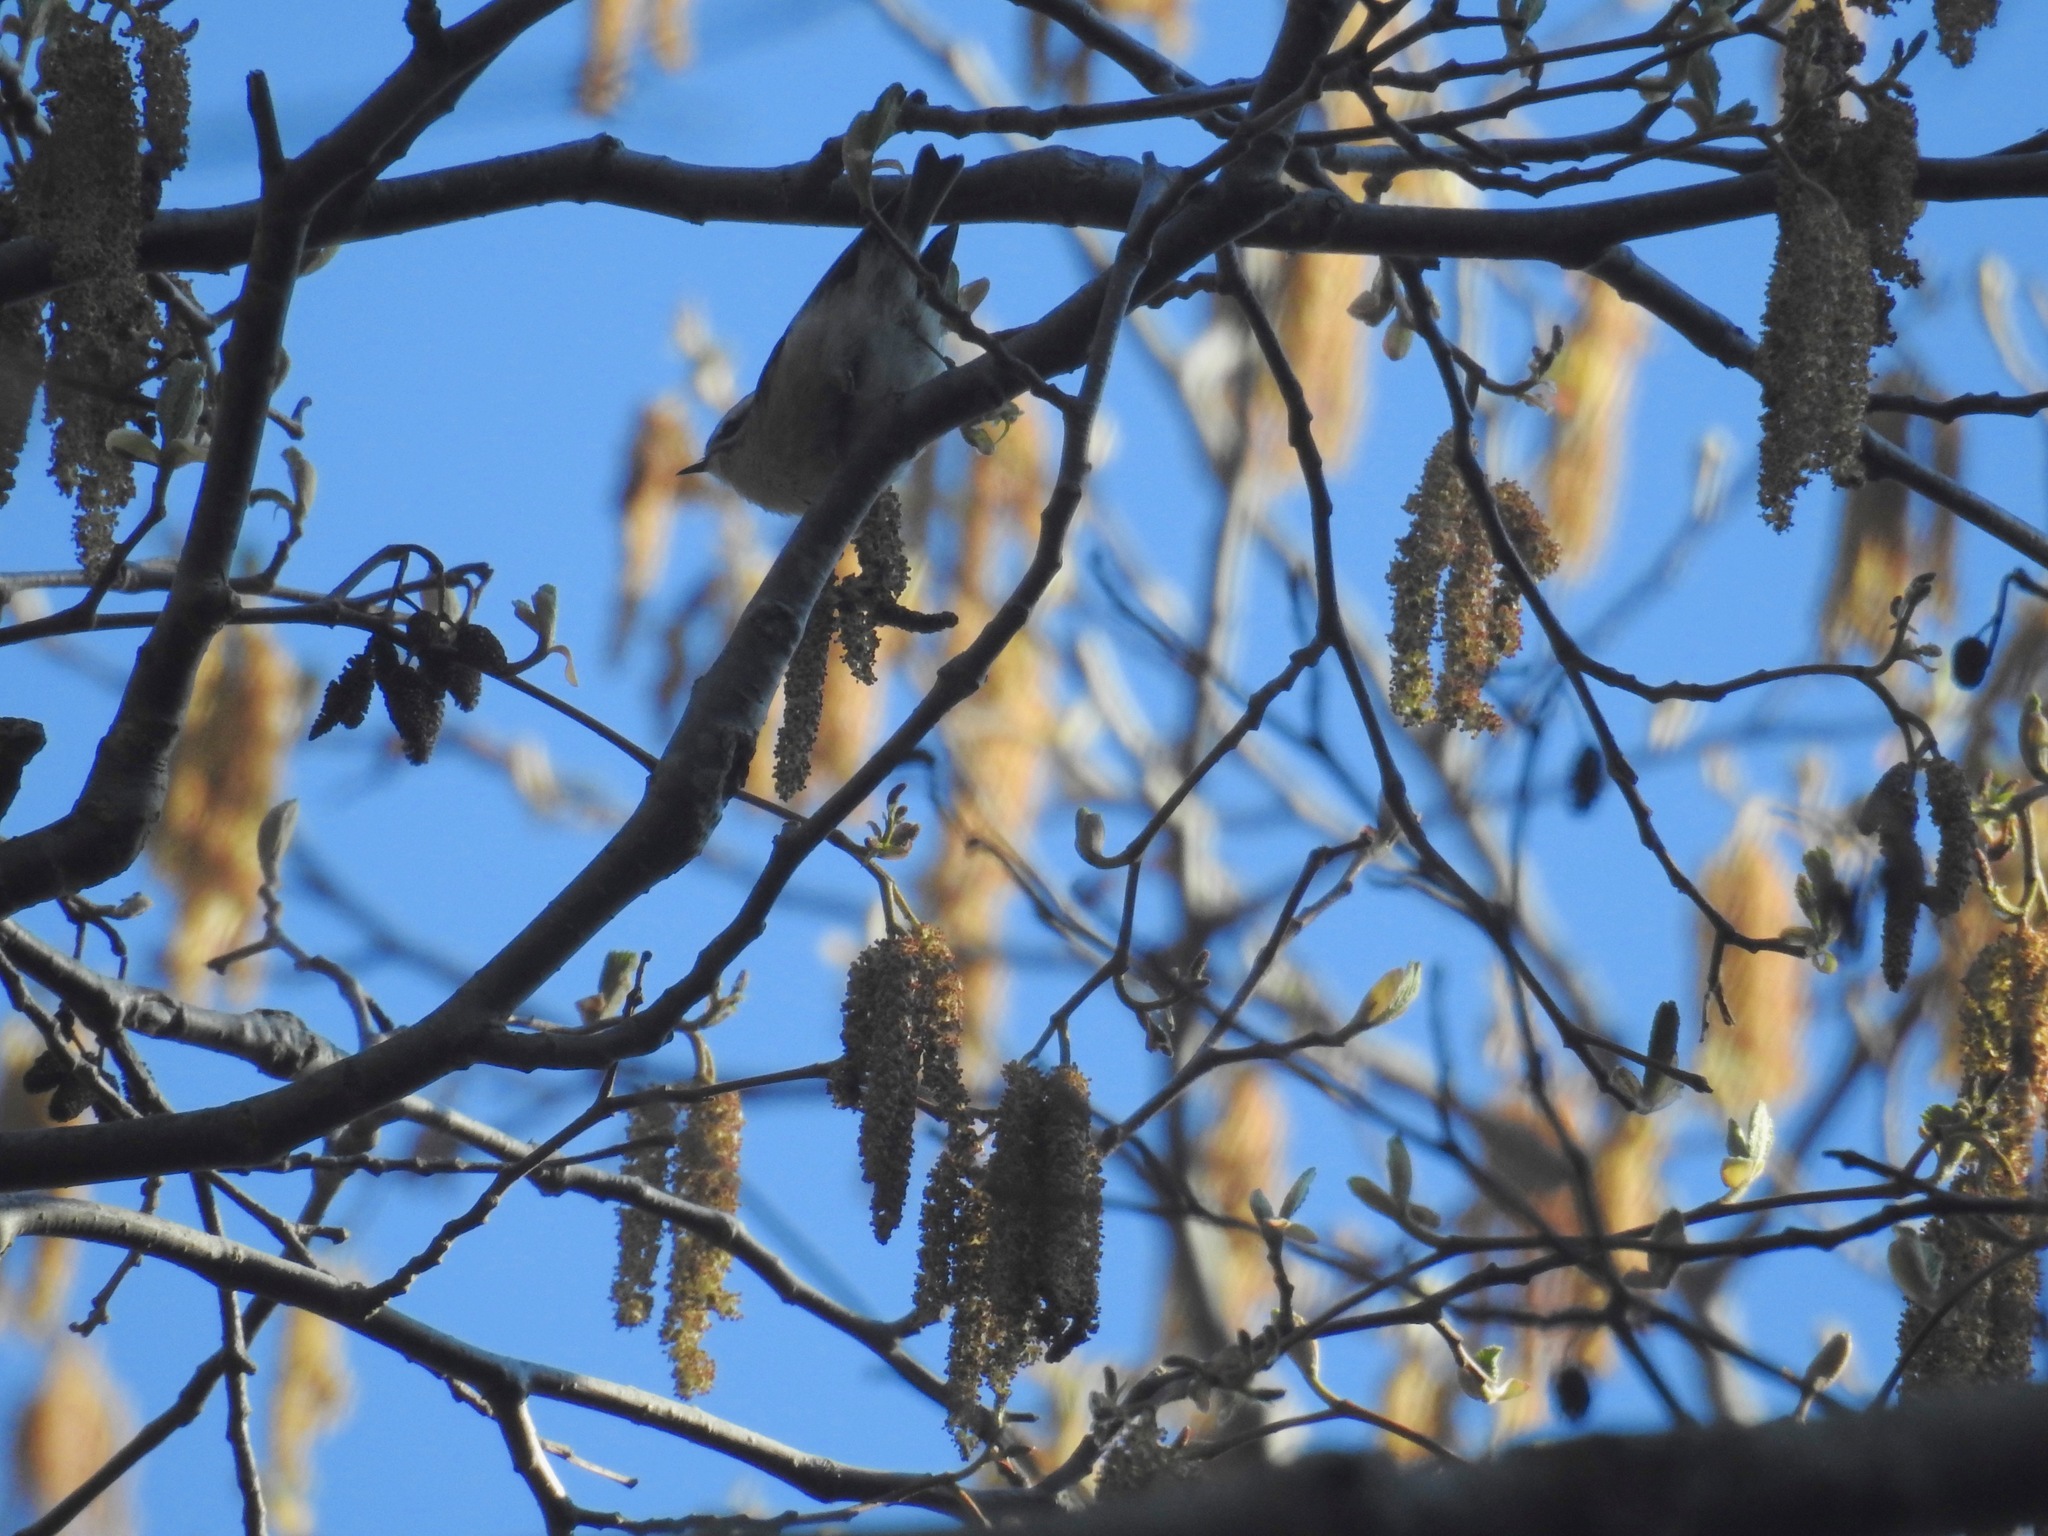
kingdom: Animalia
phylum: Chordata
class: Aves
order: Passeriformes
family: Regulidae
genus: Regulus
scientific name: Regulus calendula
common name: Ruby-crowned kinglet
